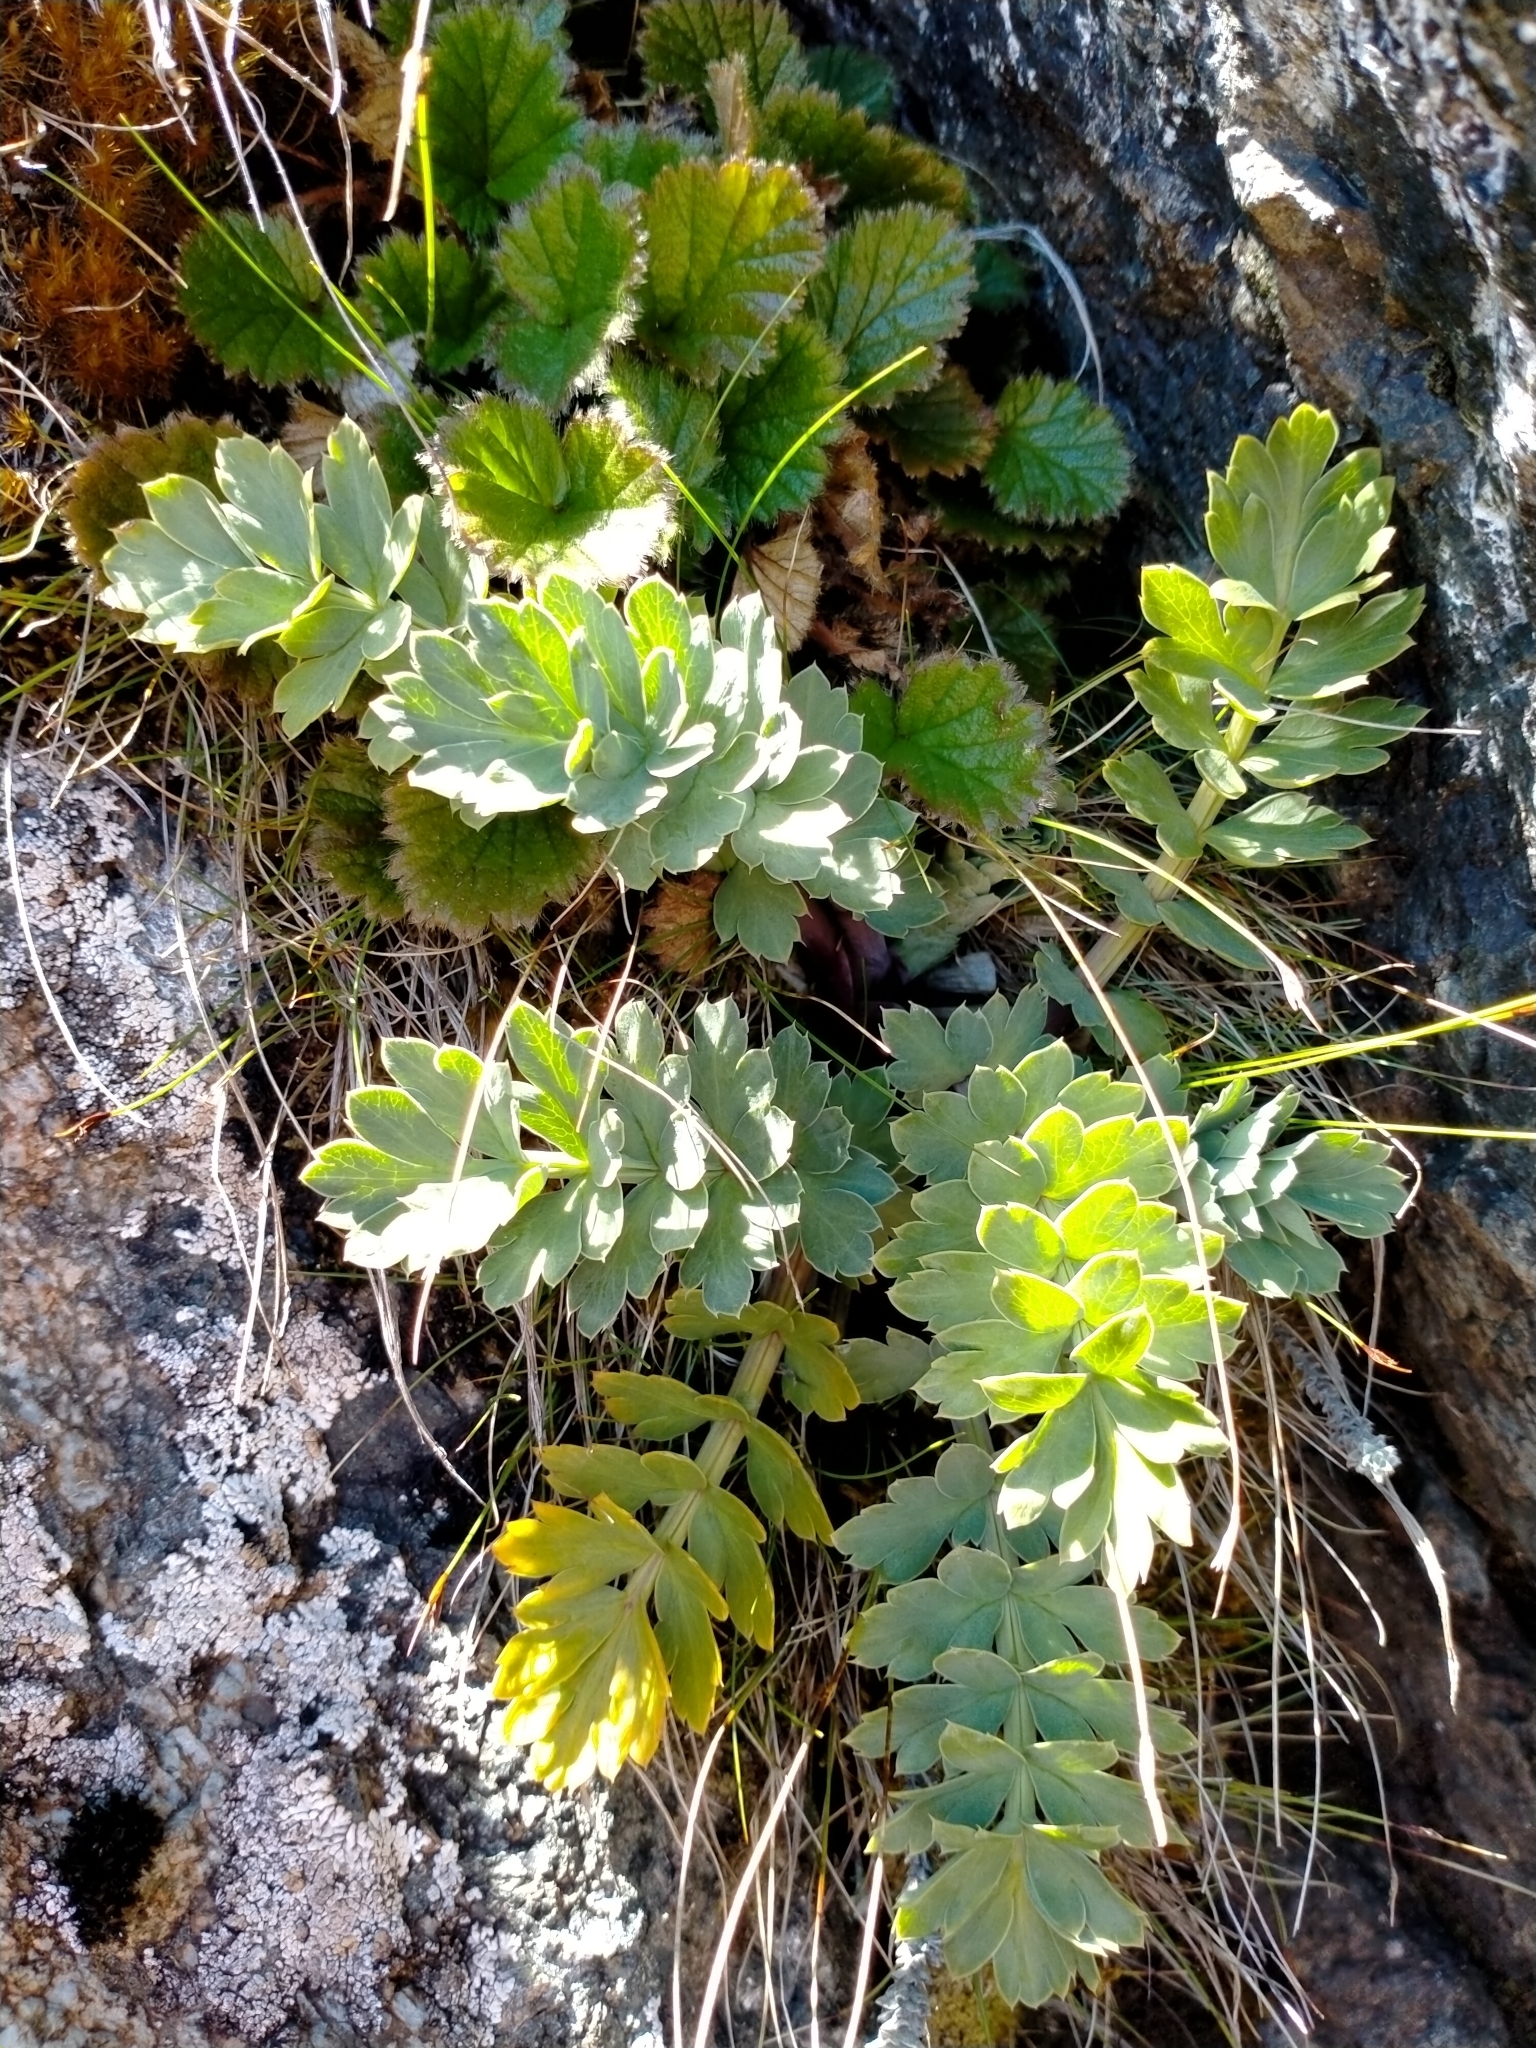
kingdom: Plantae
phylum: Tracheophyta
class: Magnoliopsida
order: Apiales
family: Apiaceae
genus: Anisotome
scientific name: Anisotome pilifera
